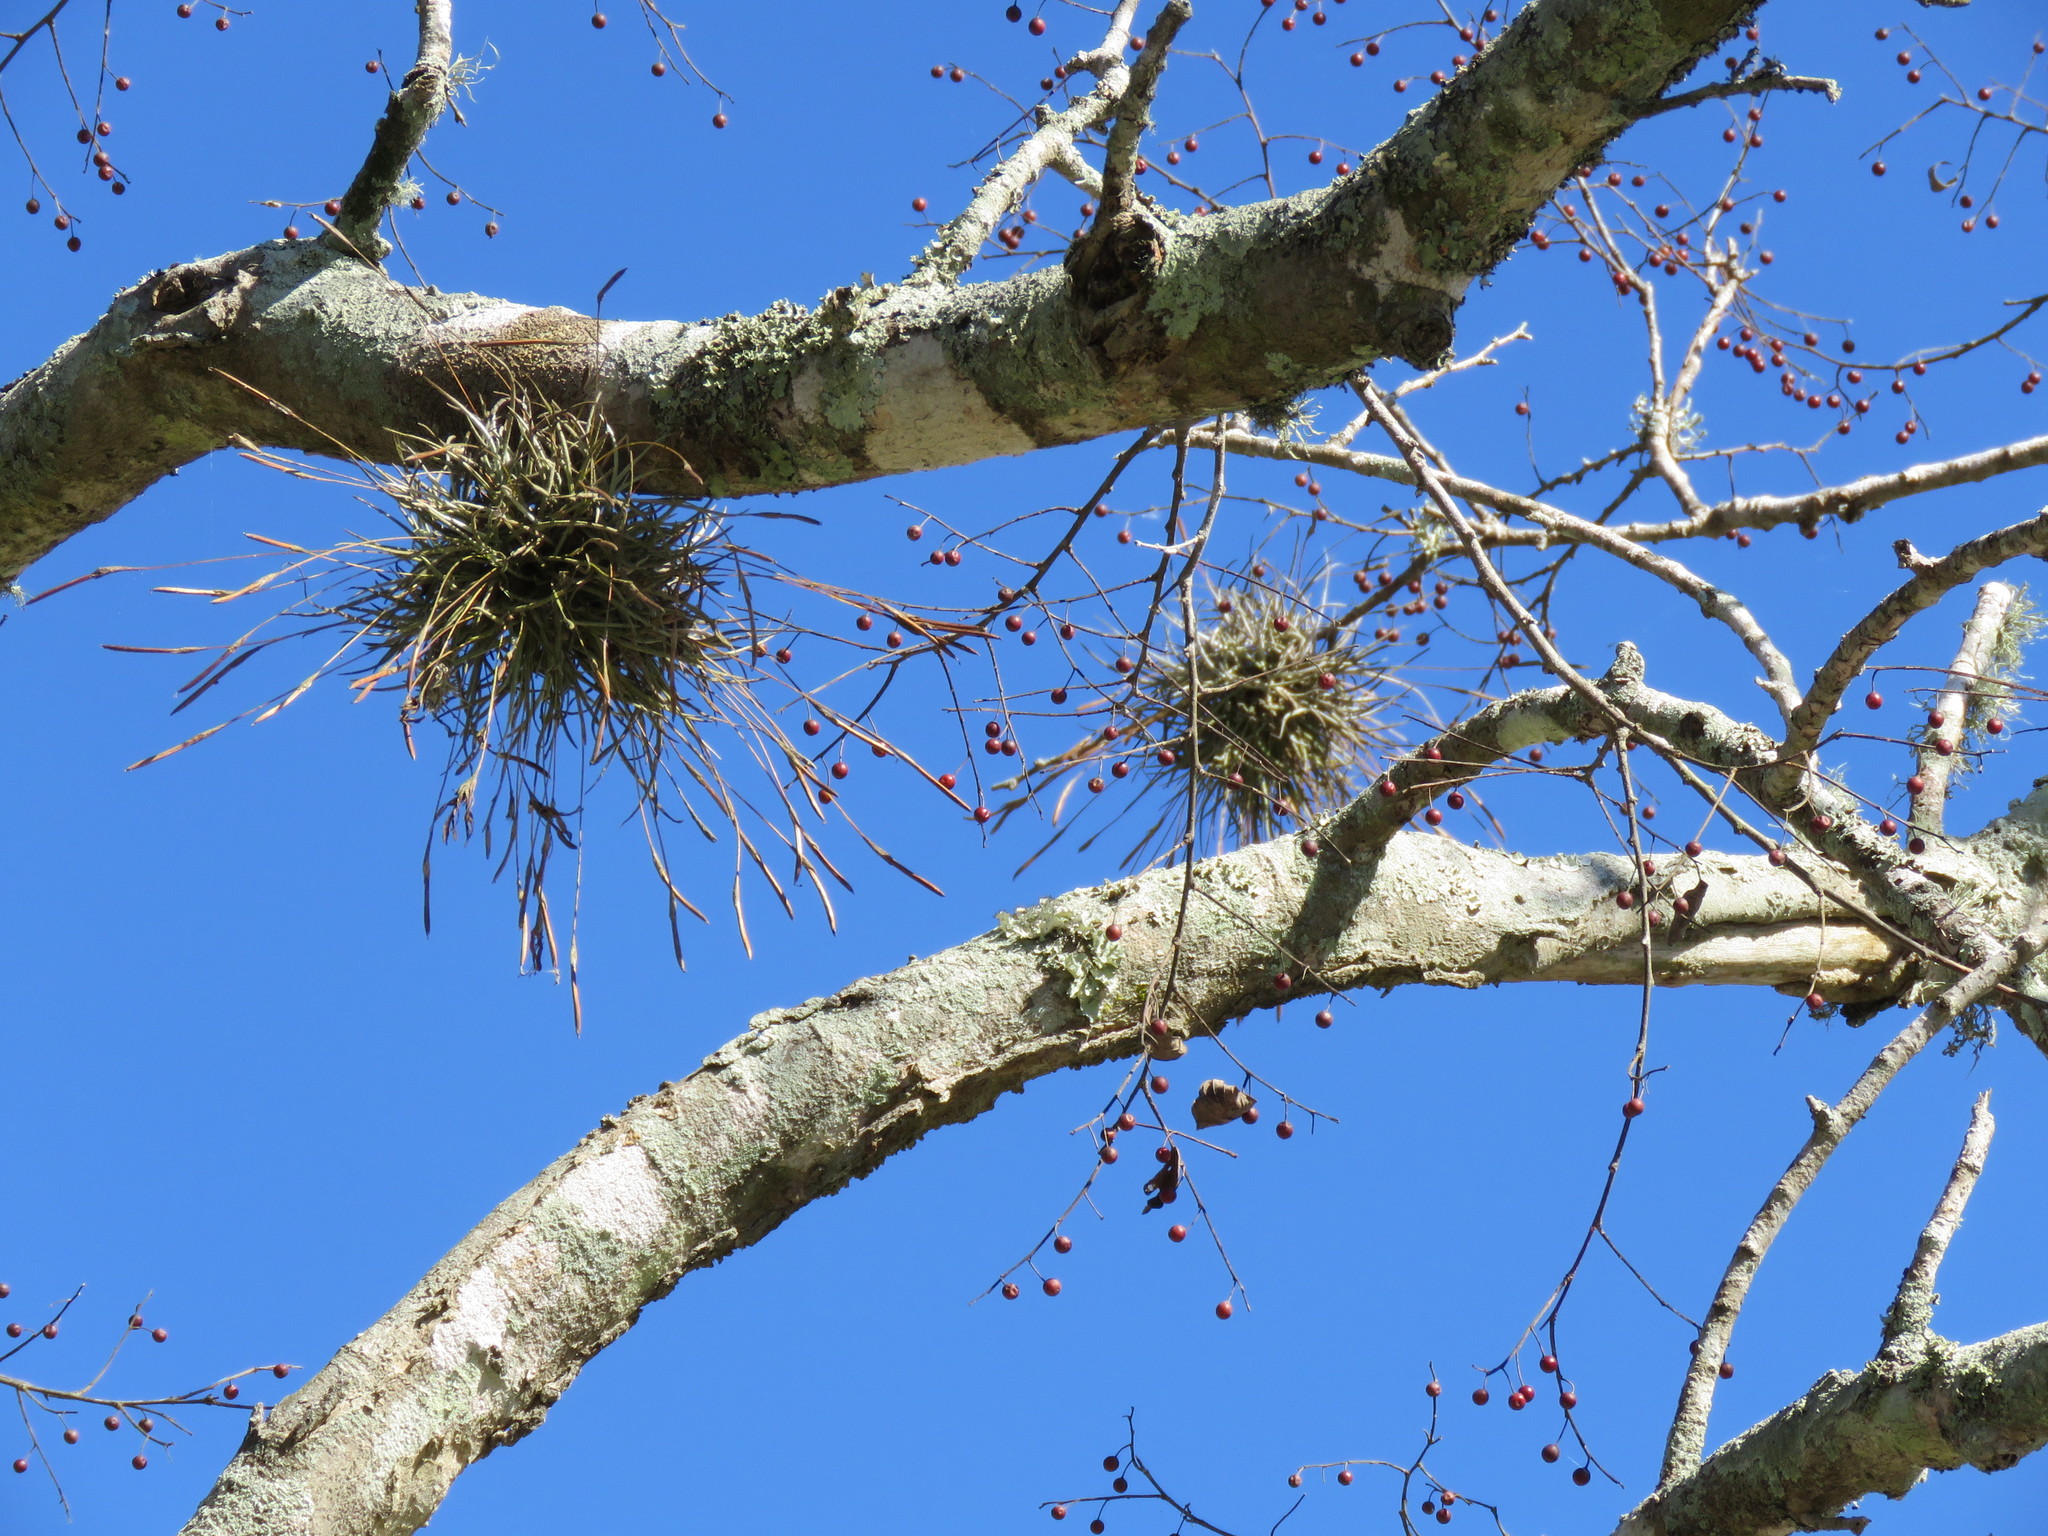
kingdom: Plantae
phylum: Tracheophyta
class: Liliopsida
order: Poales
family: Bromeliaceae
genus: Tillandsia
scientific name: Tillandsia recurvata
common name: Small ballmoss
